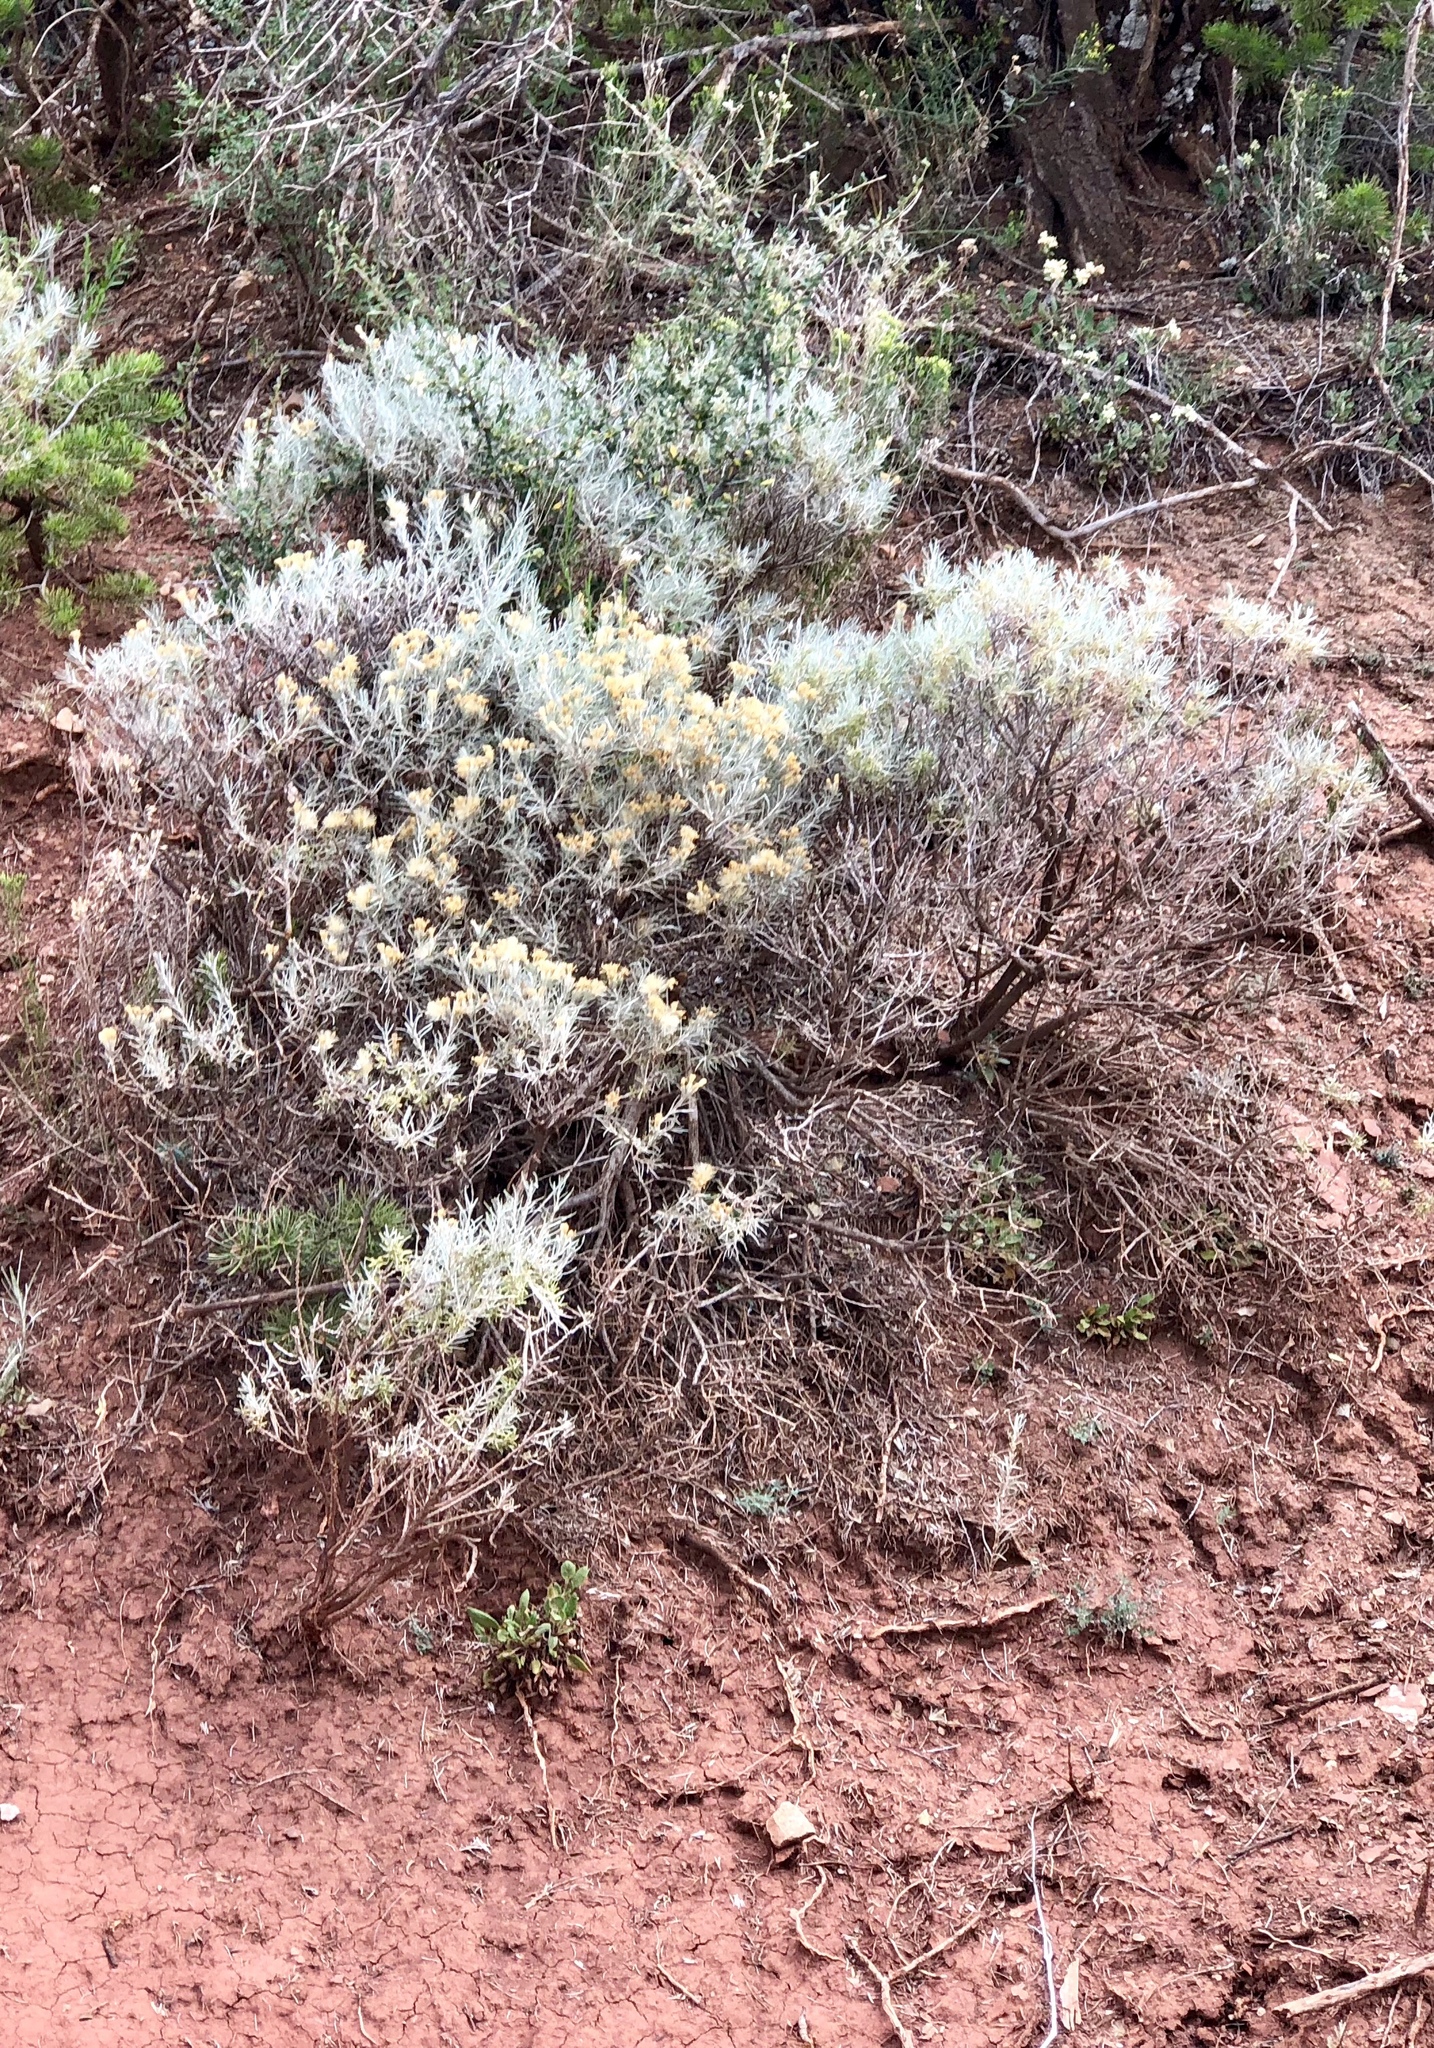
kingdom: Plantae
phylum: Tracheophyta
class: Magnoliopsida
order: Caryophyllales
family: Amaranthaceae
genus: Krascheninnikovia
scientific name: Krascheninnikovia lanata
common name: Winterfat
